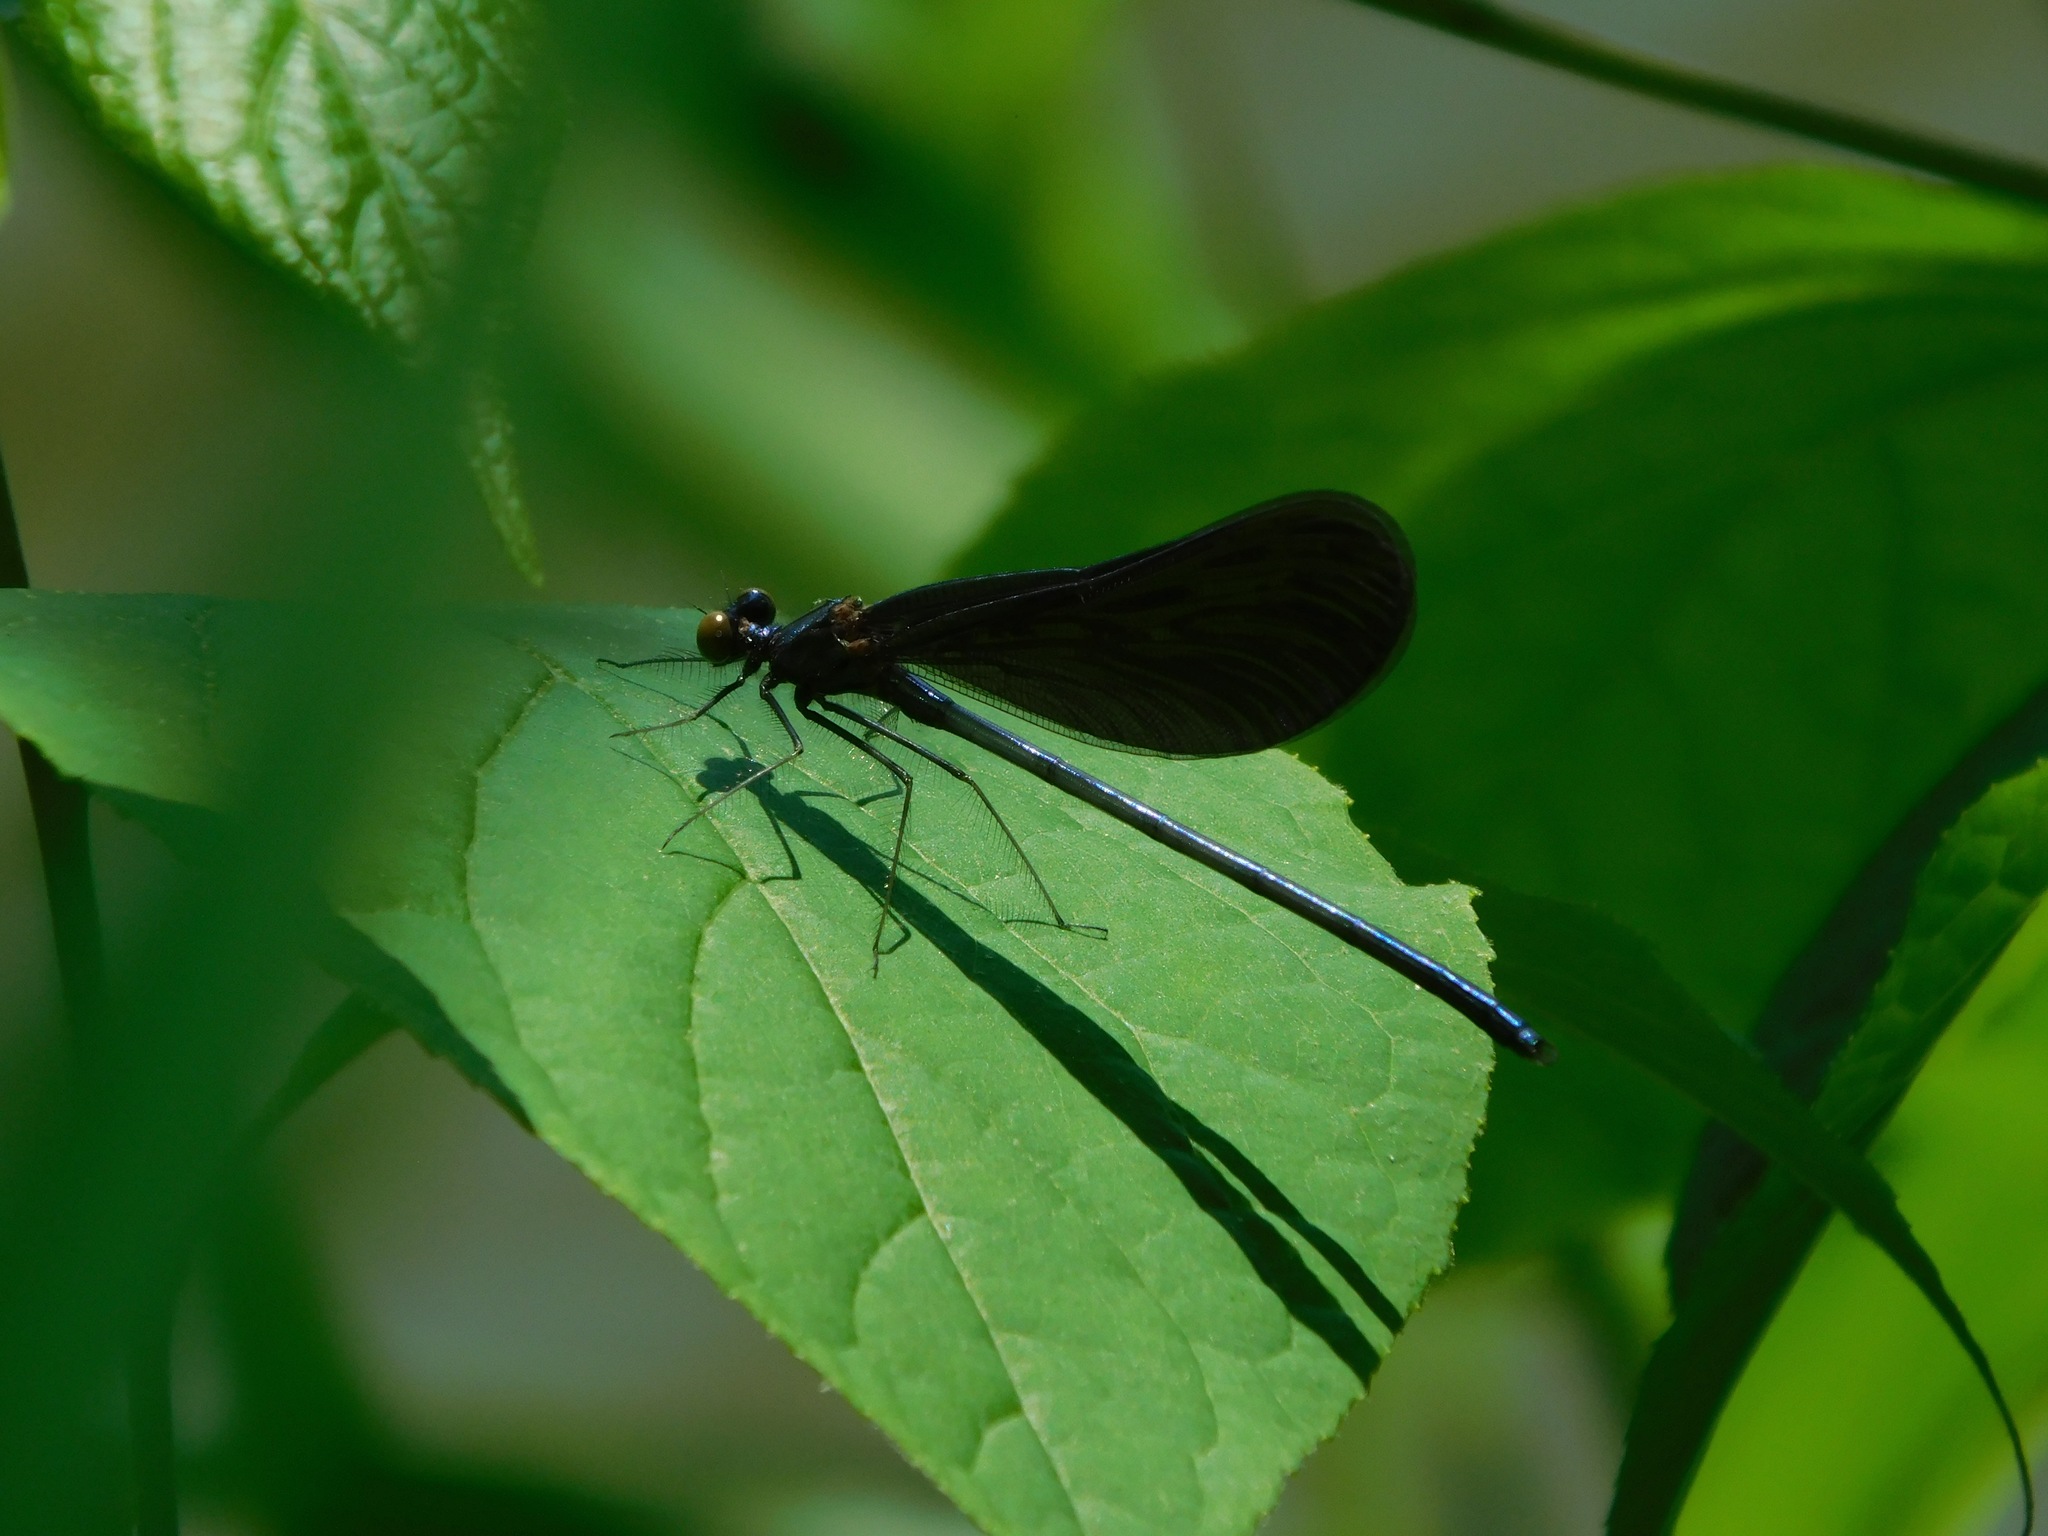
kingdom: Animalia
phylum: Arthropoda
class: Insecta
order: Odonata
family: Calopterygidae
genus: Calopteryx
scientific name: Calopteryx maculata
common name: Ebony jewelwing
